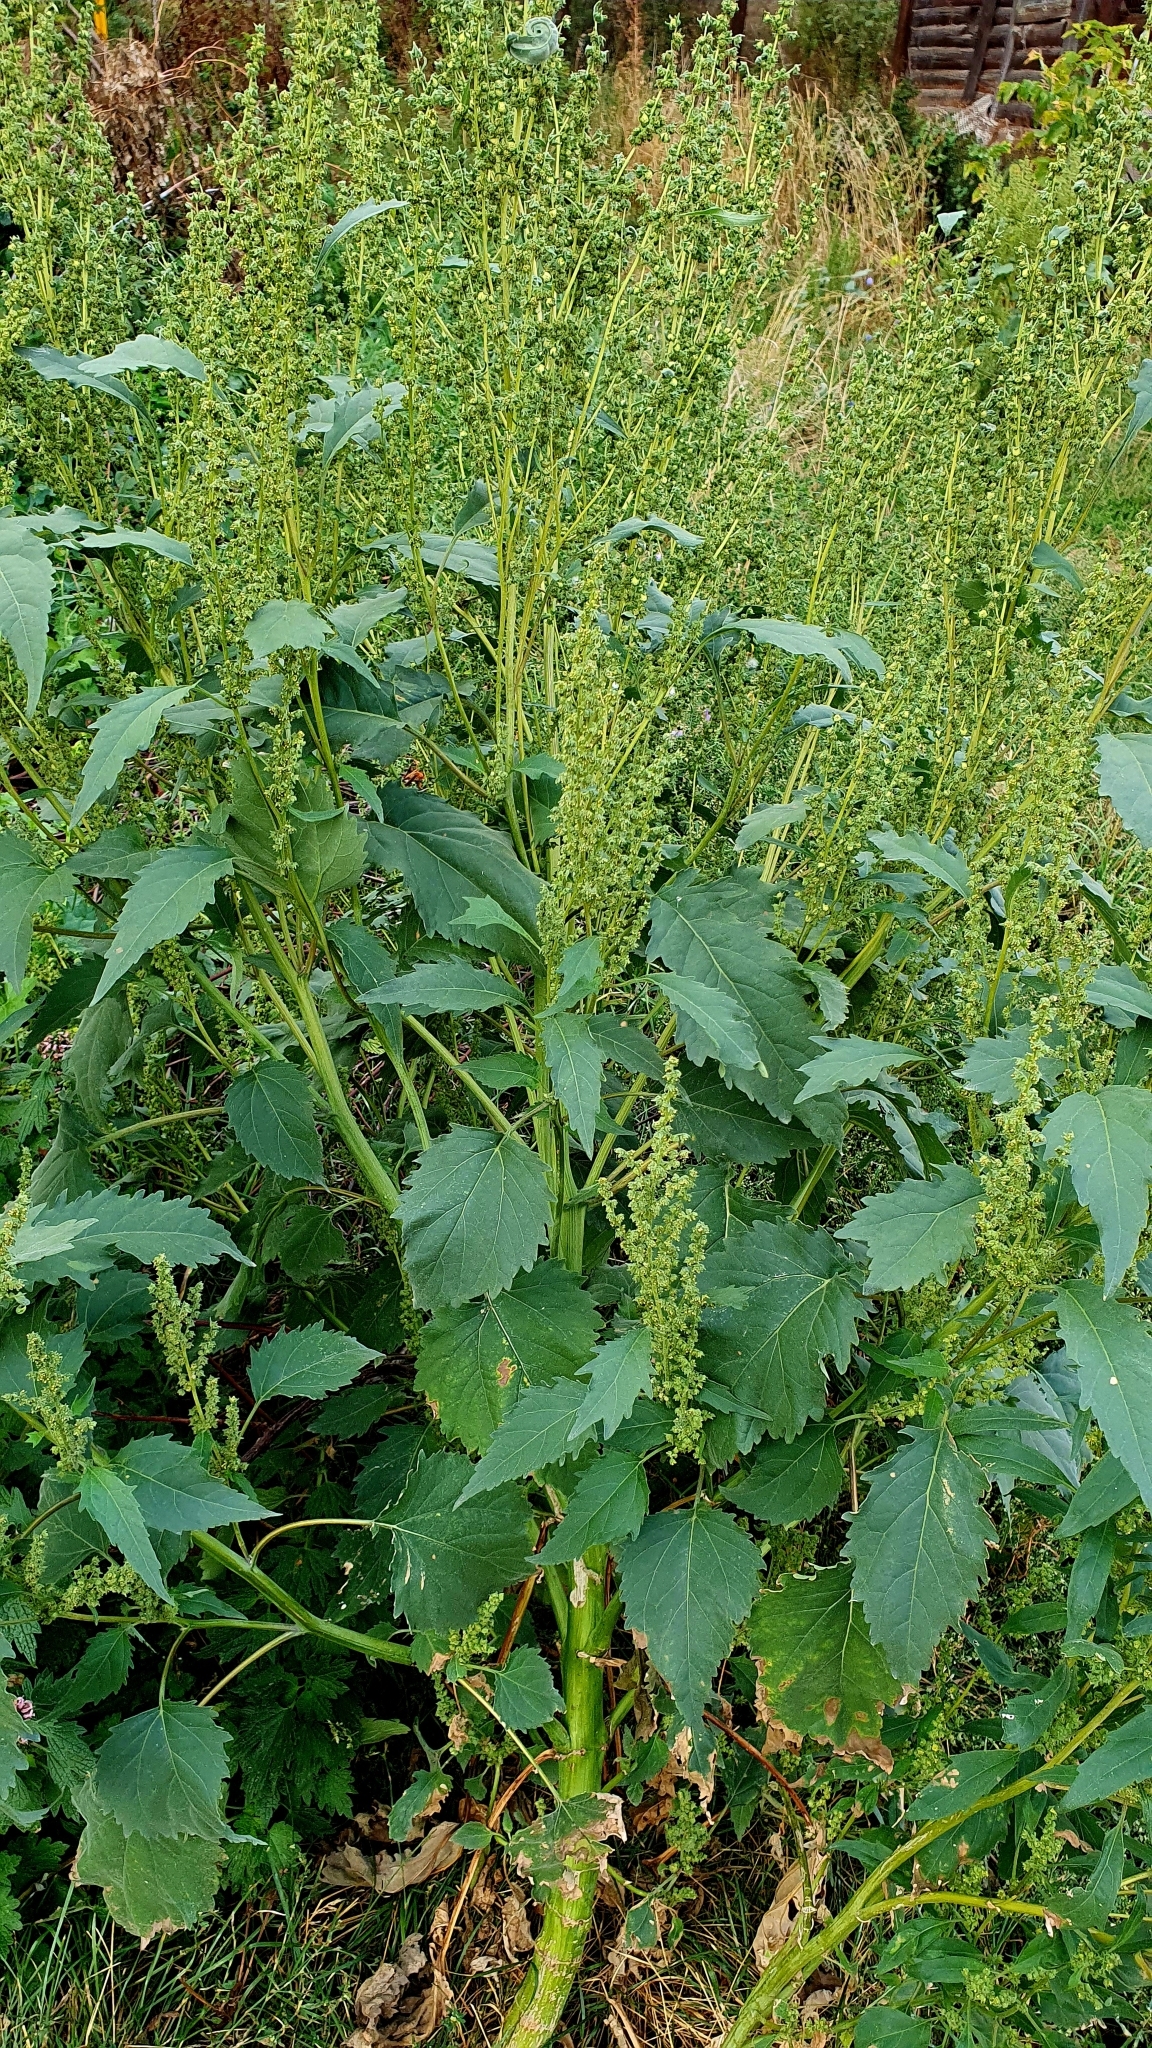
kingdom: Plantae
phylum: Tracheophyta
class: Magnoliopsida
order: Asterales
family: Asteraceae
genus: Cyclachaena
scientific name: Cyclachaena xanthiifolia
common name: Giant sumpweed
